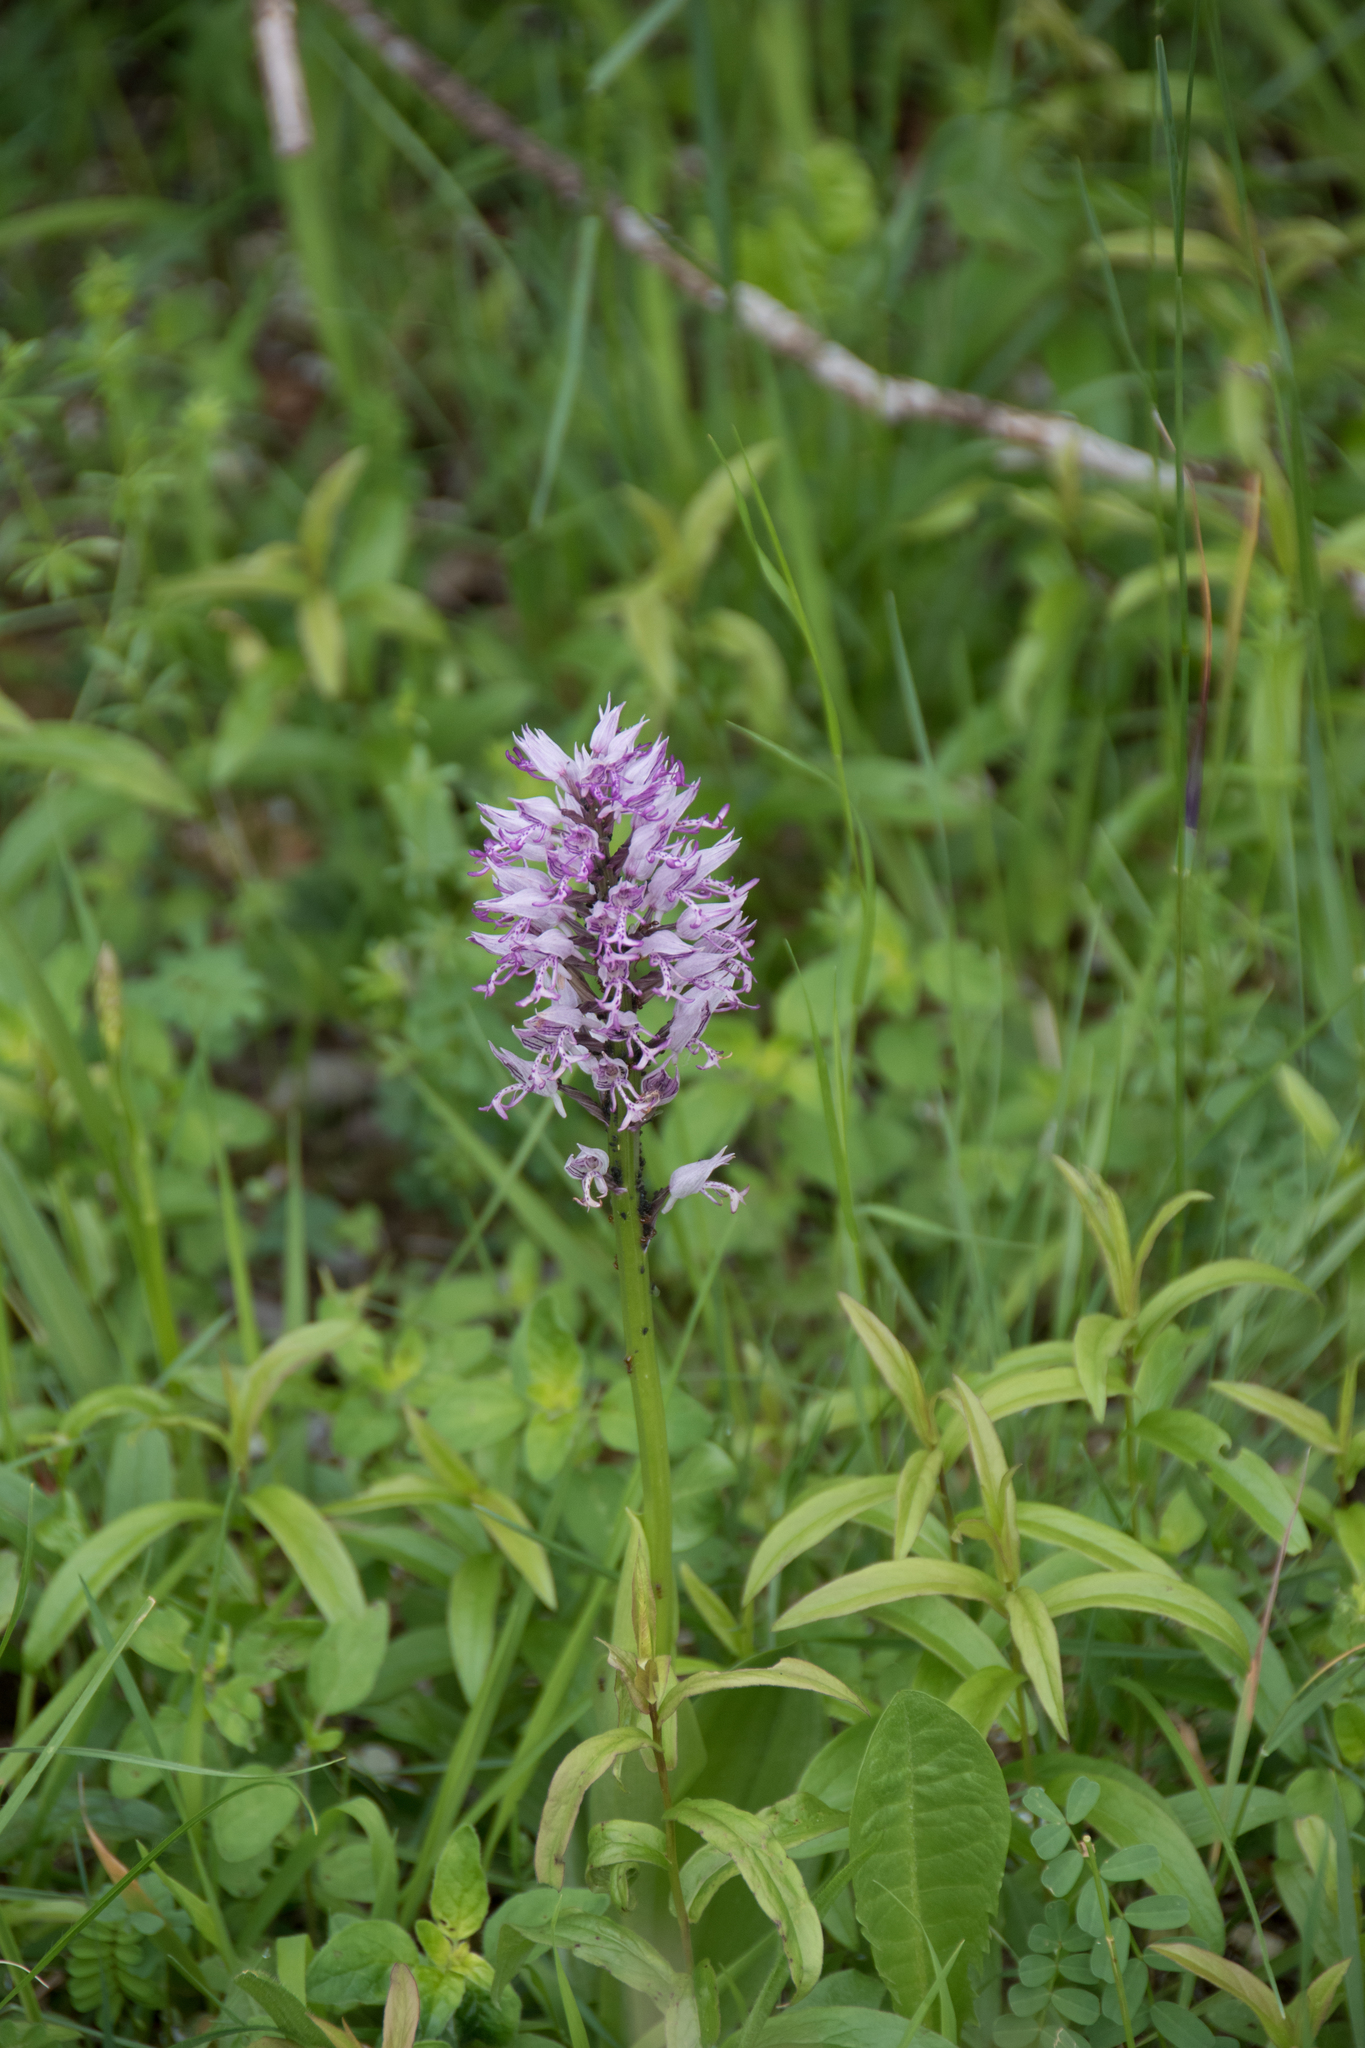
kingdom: Plantae
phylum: Tracheophyta
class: Liliopsida
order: Asparagales
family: Orchidaceae
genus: Orchis
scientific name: Orchis militaris
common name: Military orchid
